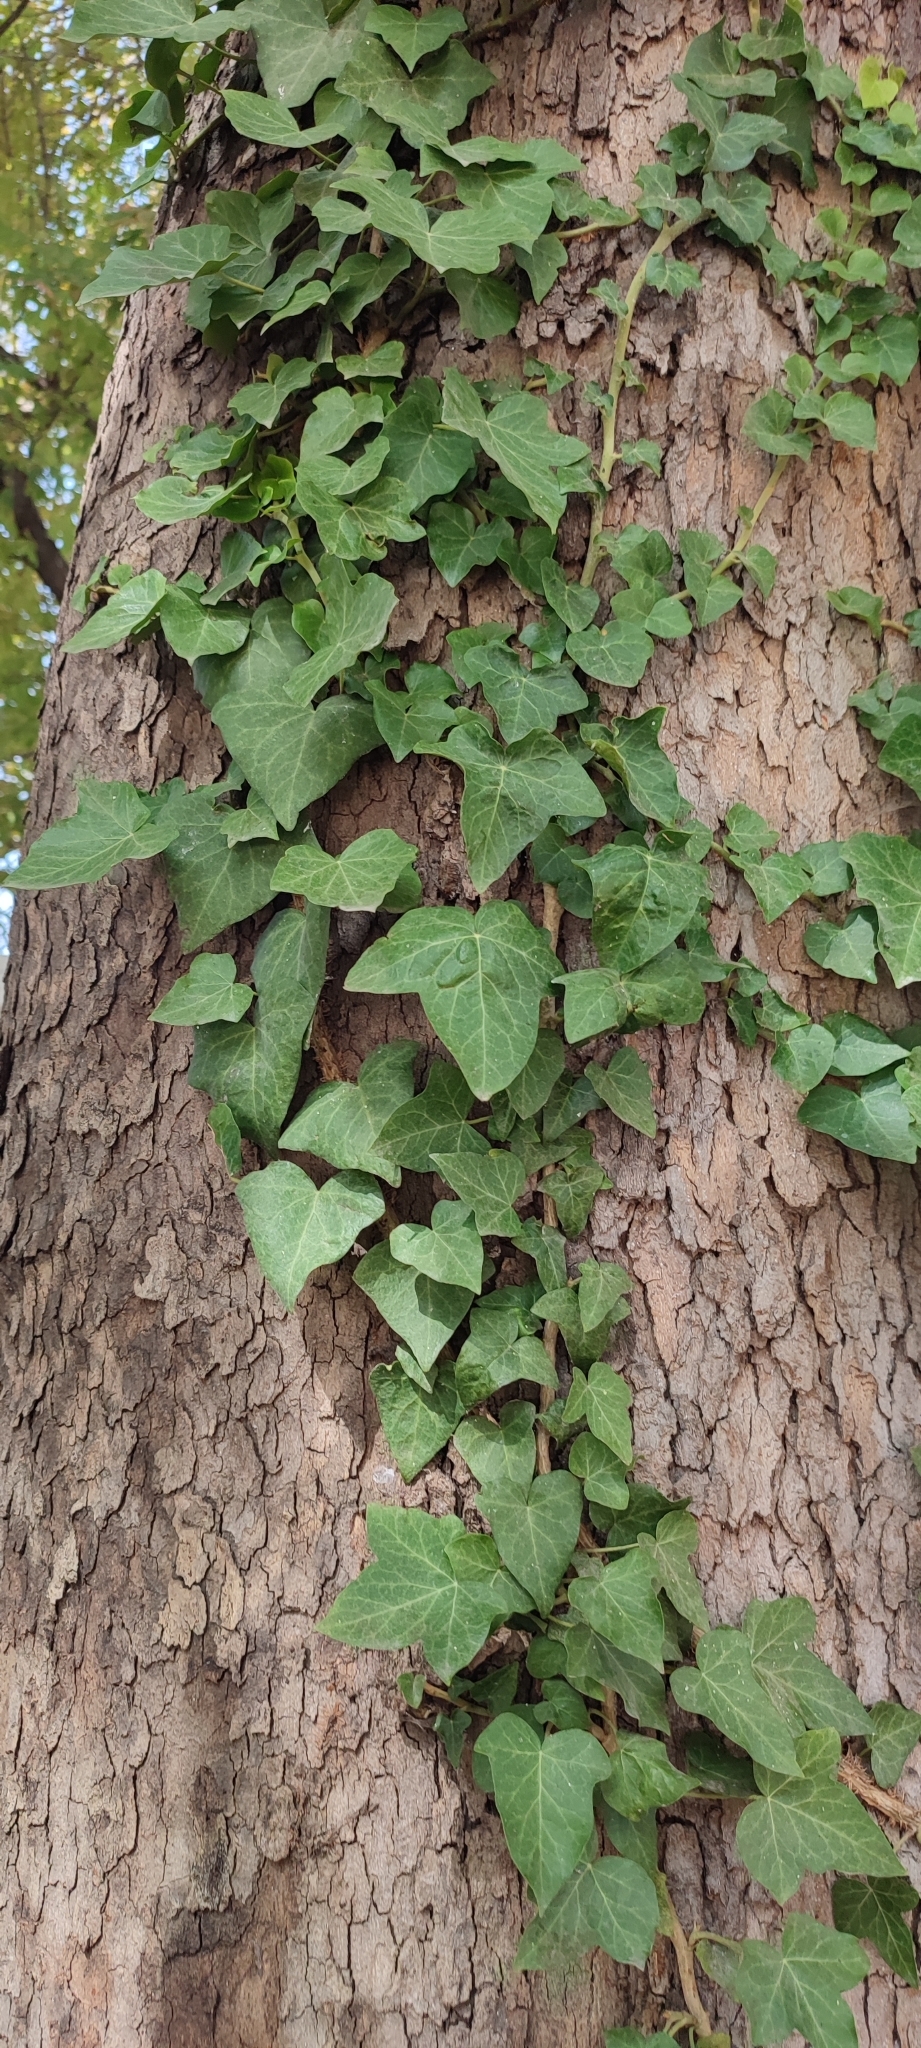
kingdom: Plantae
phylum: Tracheophyta
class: Magnoliopsida
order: Apiales
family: Araliaceae
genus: Hedera
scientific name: Hedera helix
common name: Ivy
